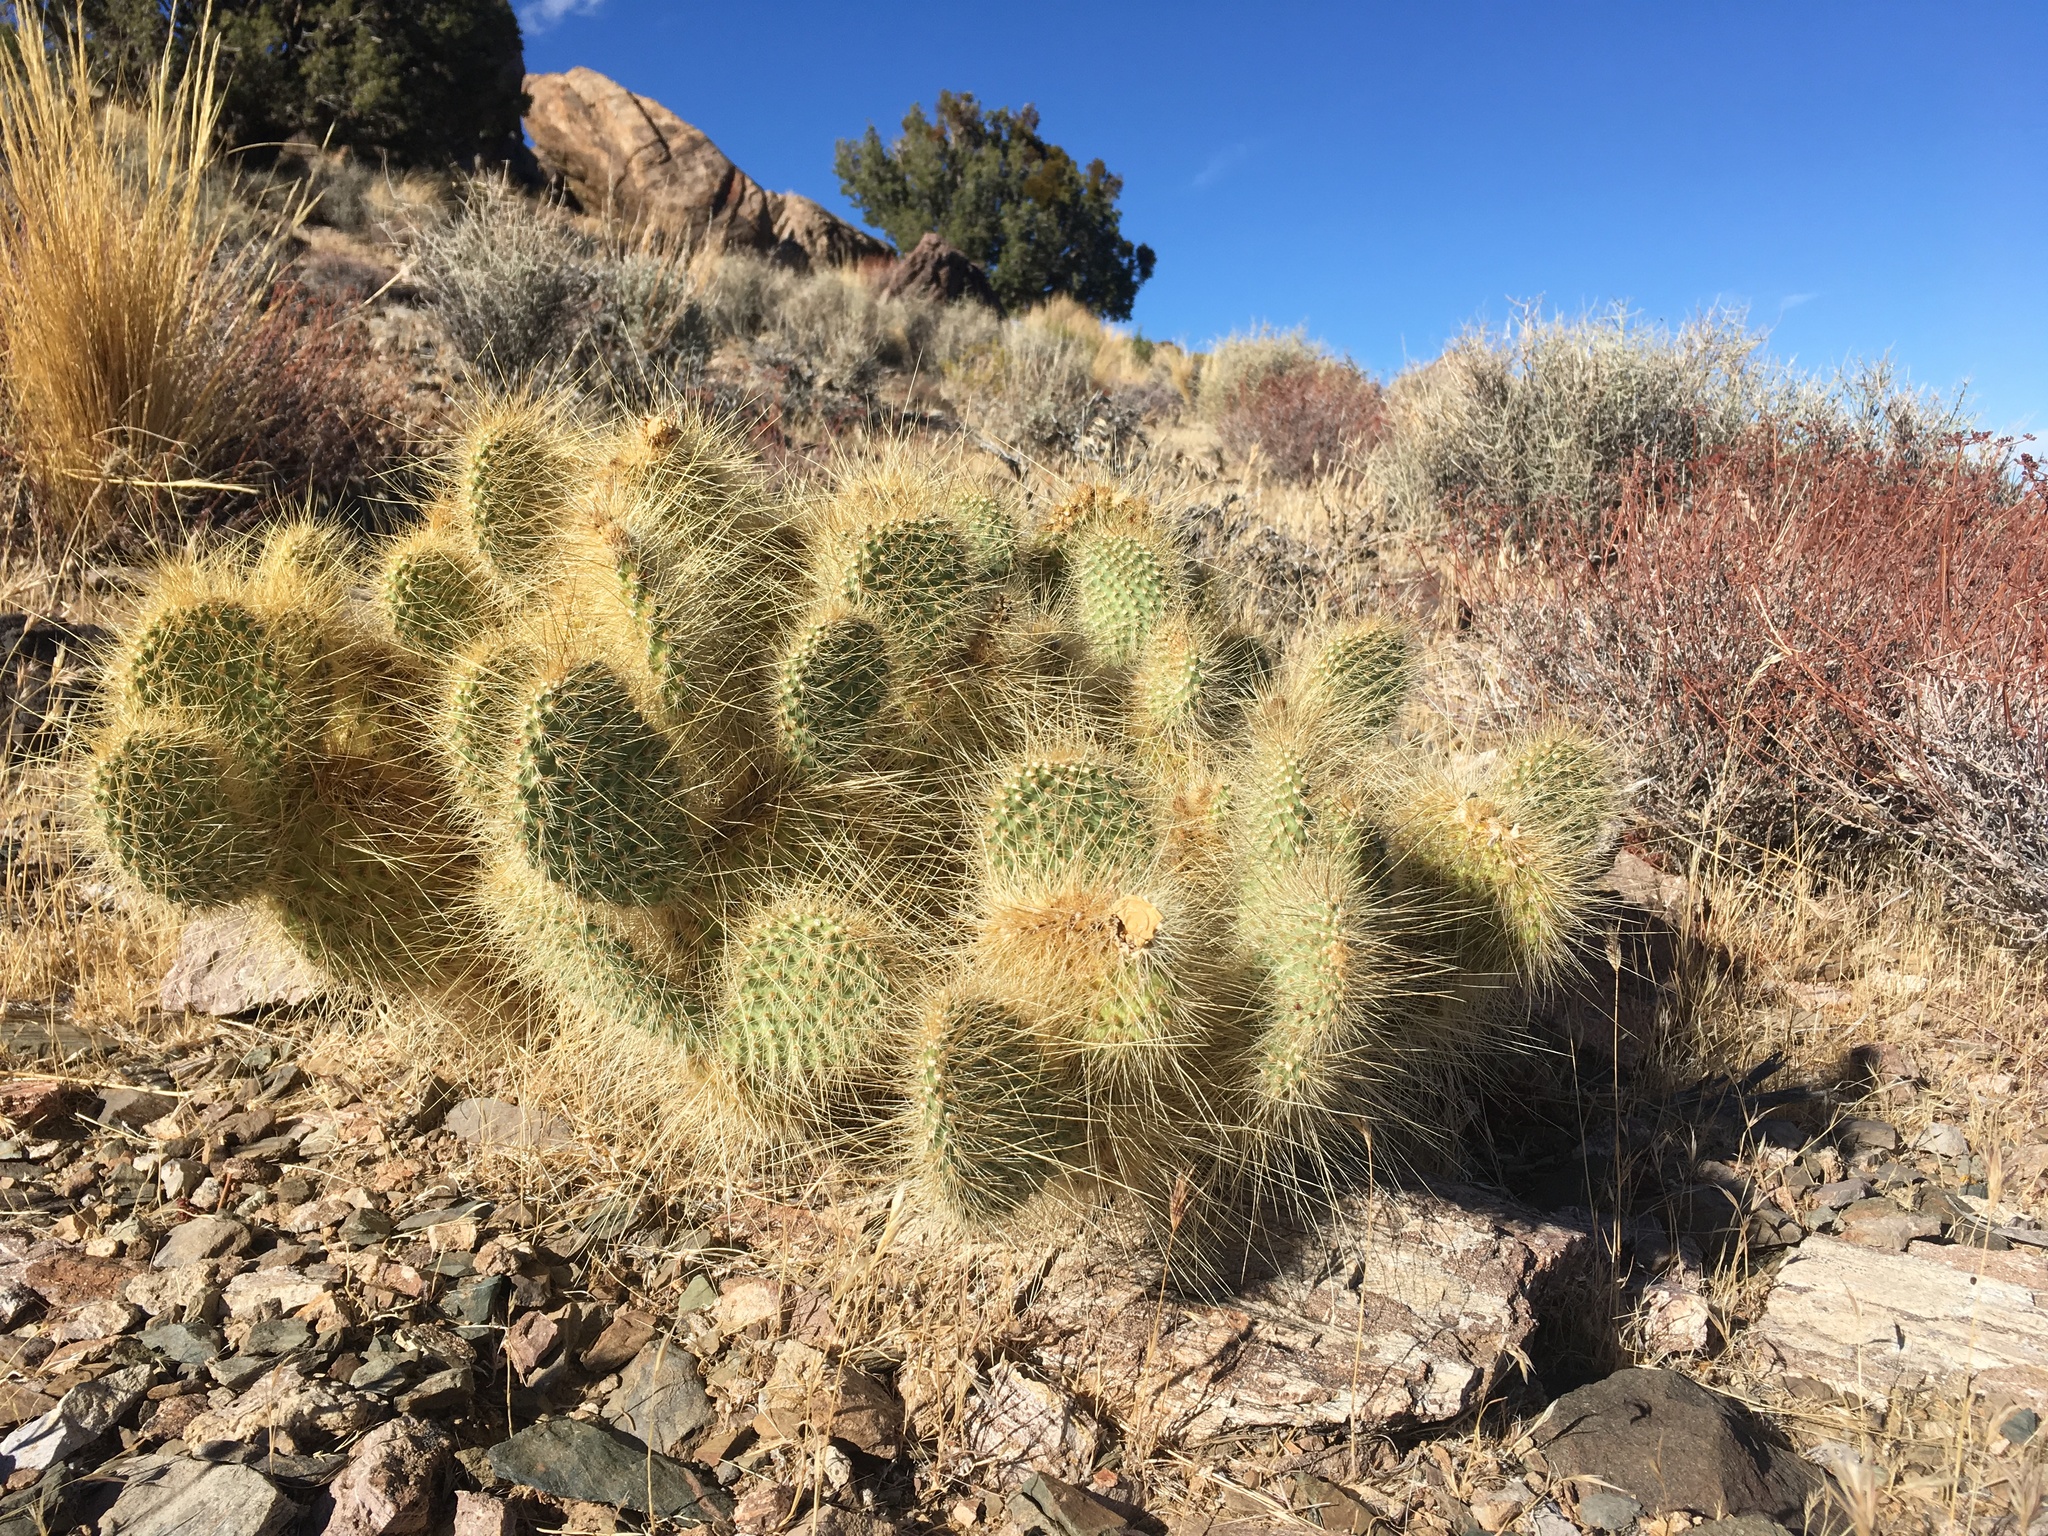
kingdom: Plantae
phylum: Tracheophyta
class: Magnoliopsida
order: Caryophyllales
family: Cactaceae
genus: Opuntia
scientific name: Opuntia polyacantha
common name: Plains prickly-pear
